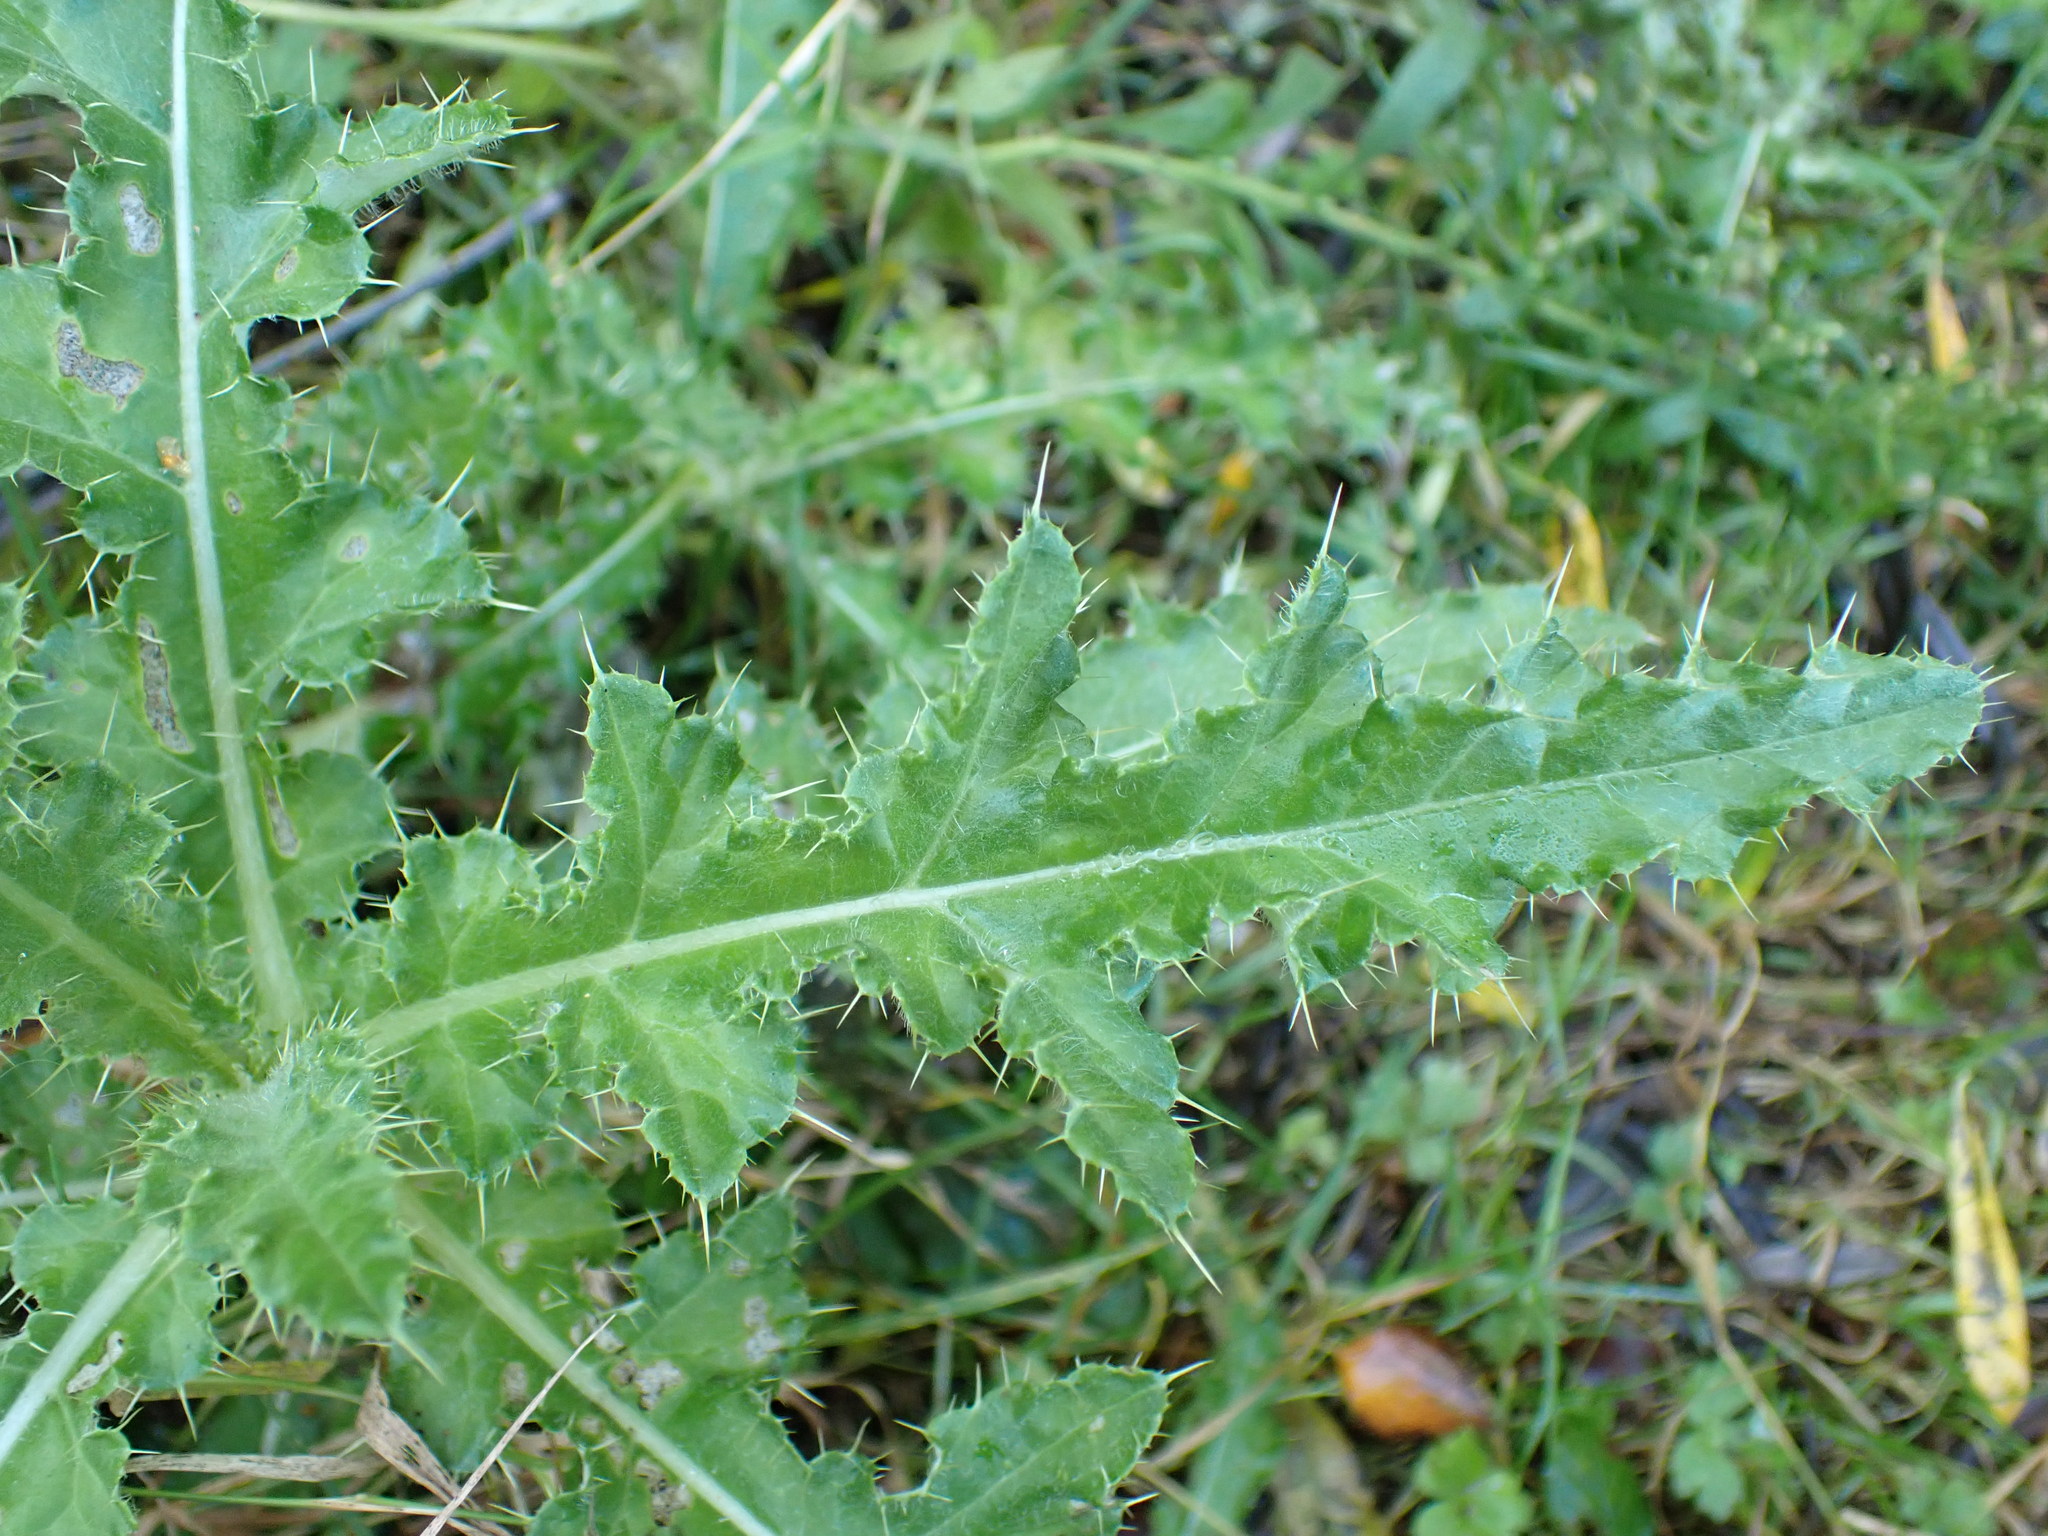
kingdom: Plantae
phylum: Tracheophyta
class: Magnoliopsida
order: Asterales
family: Asteraceae
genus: Cirsium
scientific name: Cirsium arvense
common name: Creeping thistle
